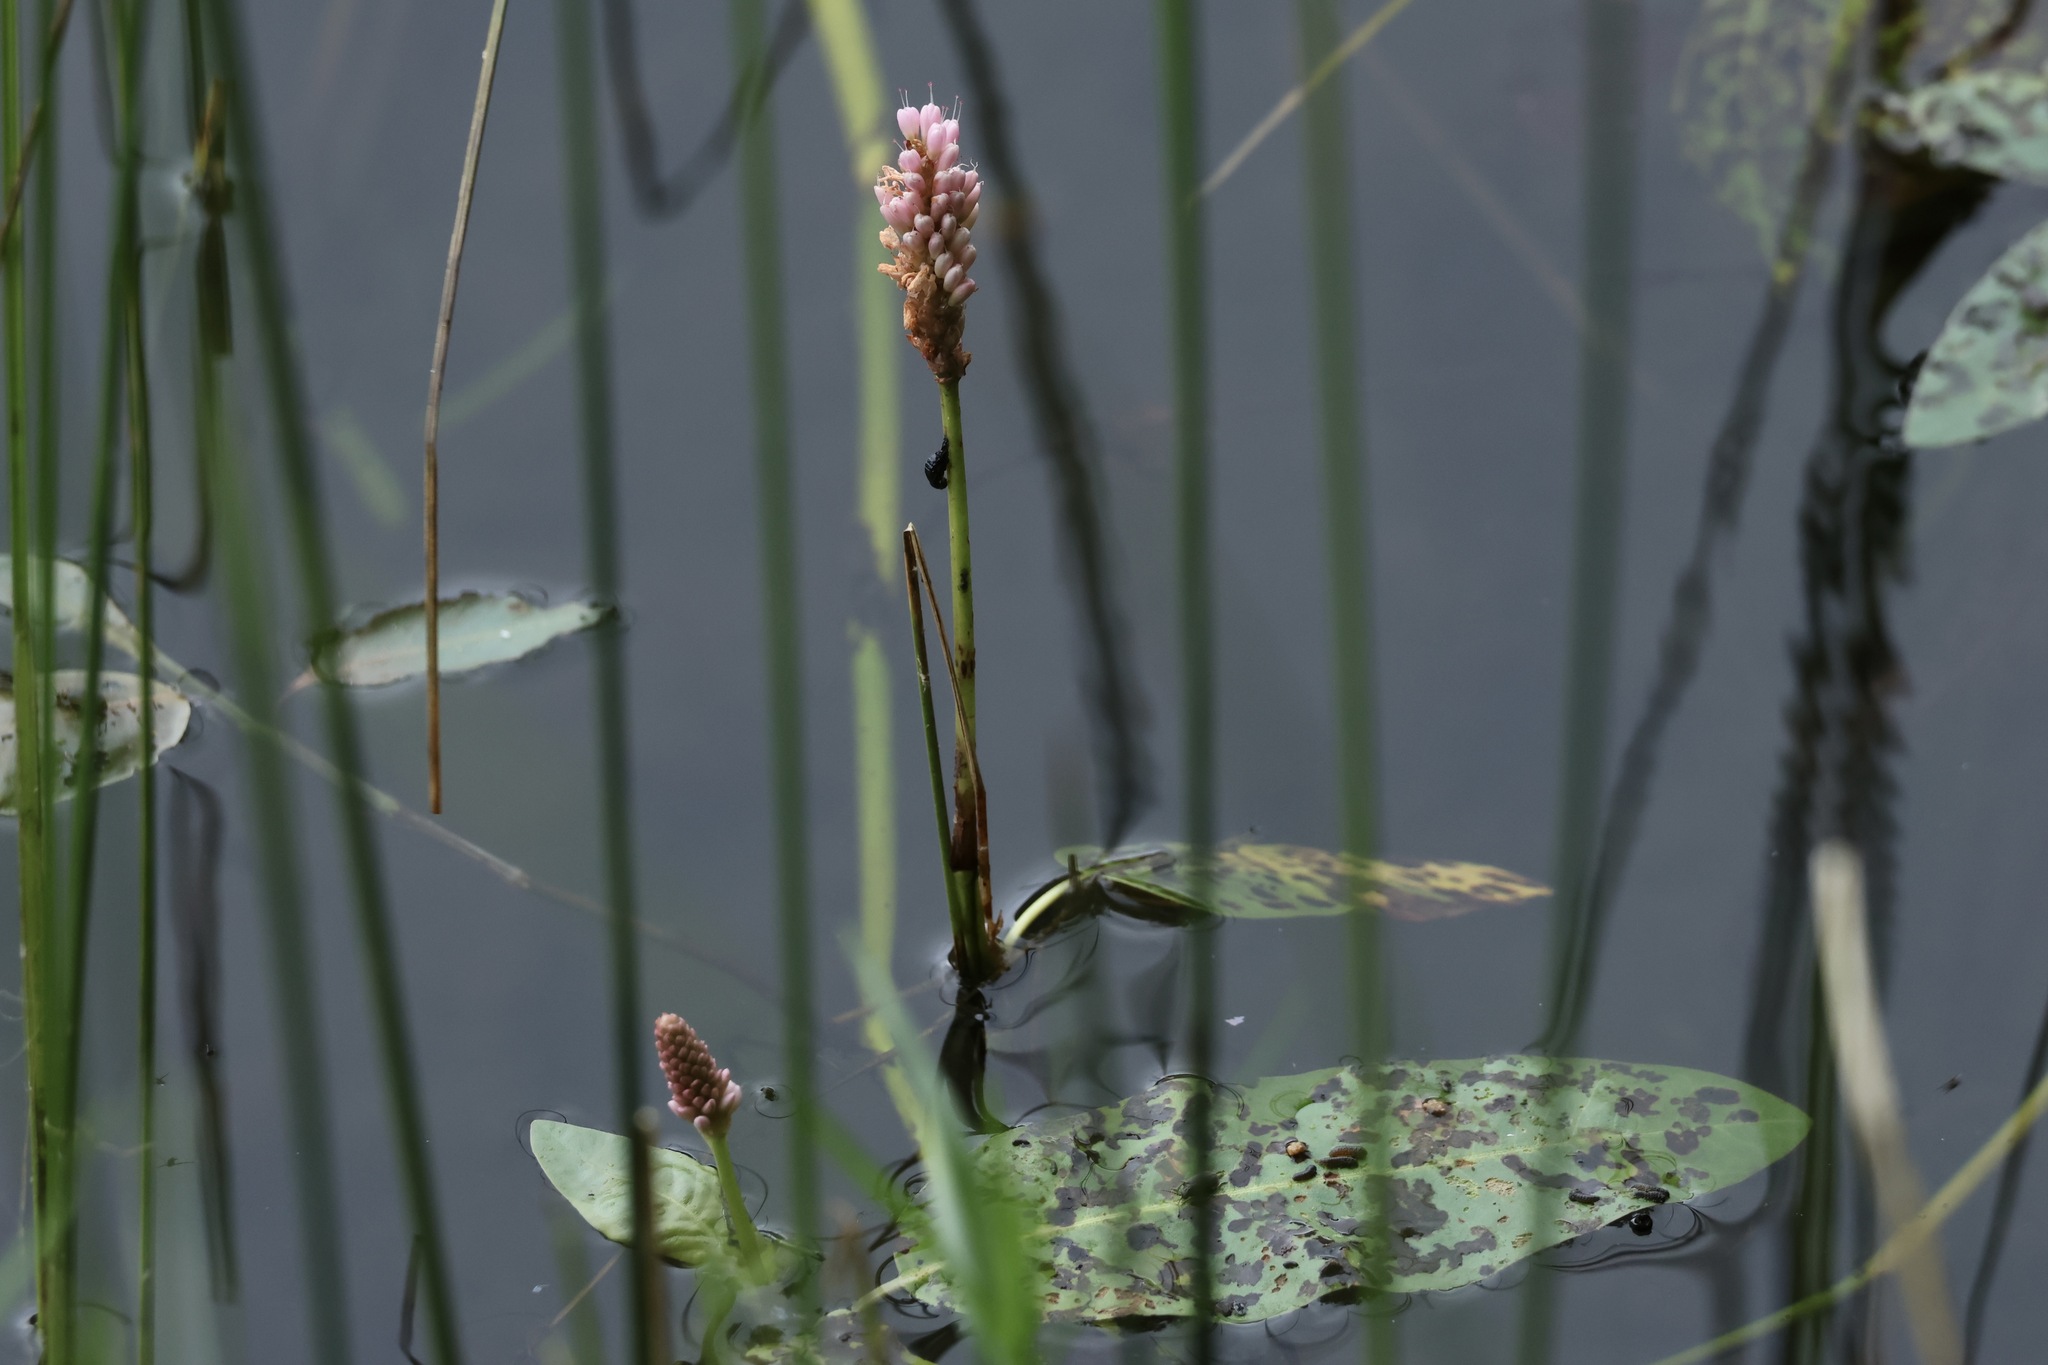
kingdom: Plantae
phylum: Tracheophyta
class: Magnoliopsida
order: Caryophyllales
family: Polygonaceae
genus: Persicaria
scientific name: Persicaria amphibia
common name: Amphibious bistort
